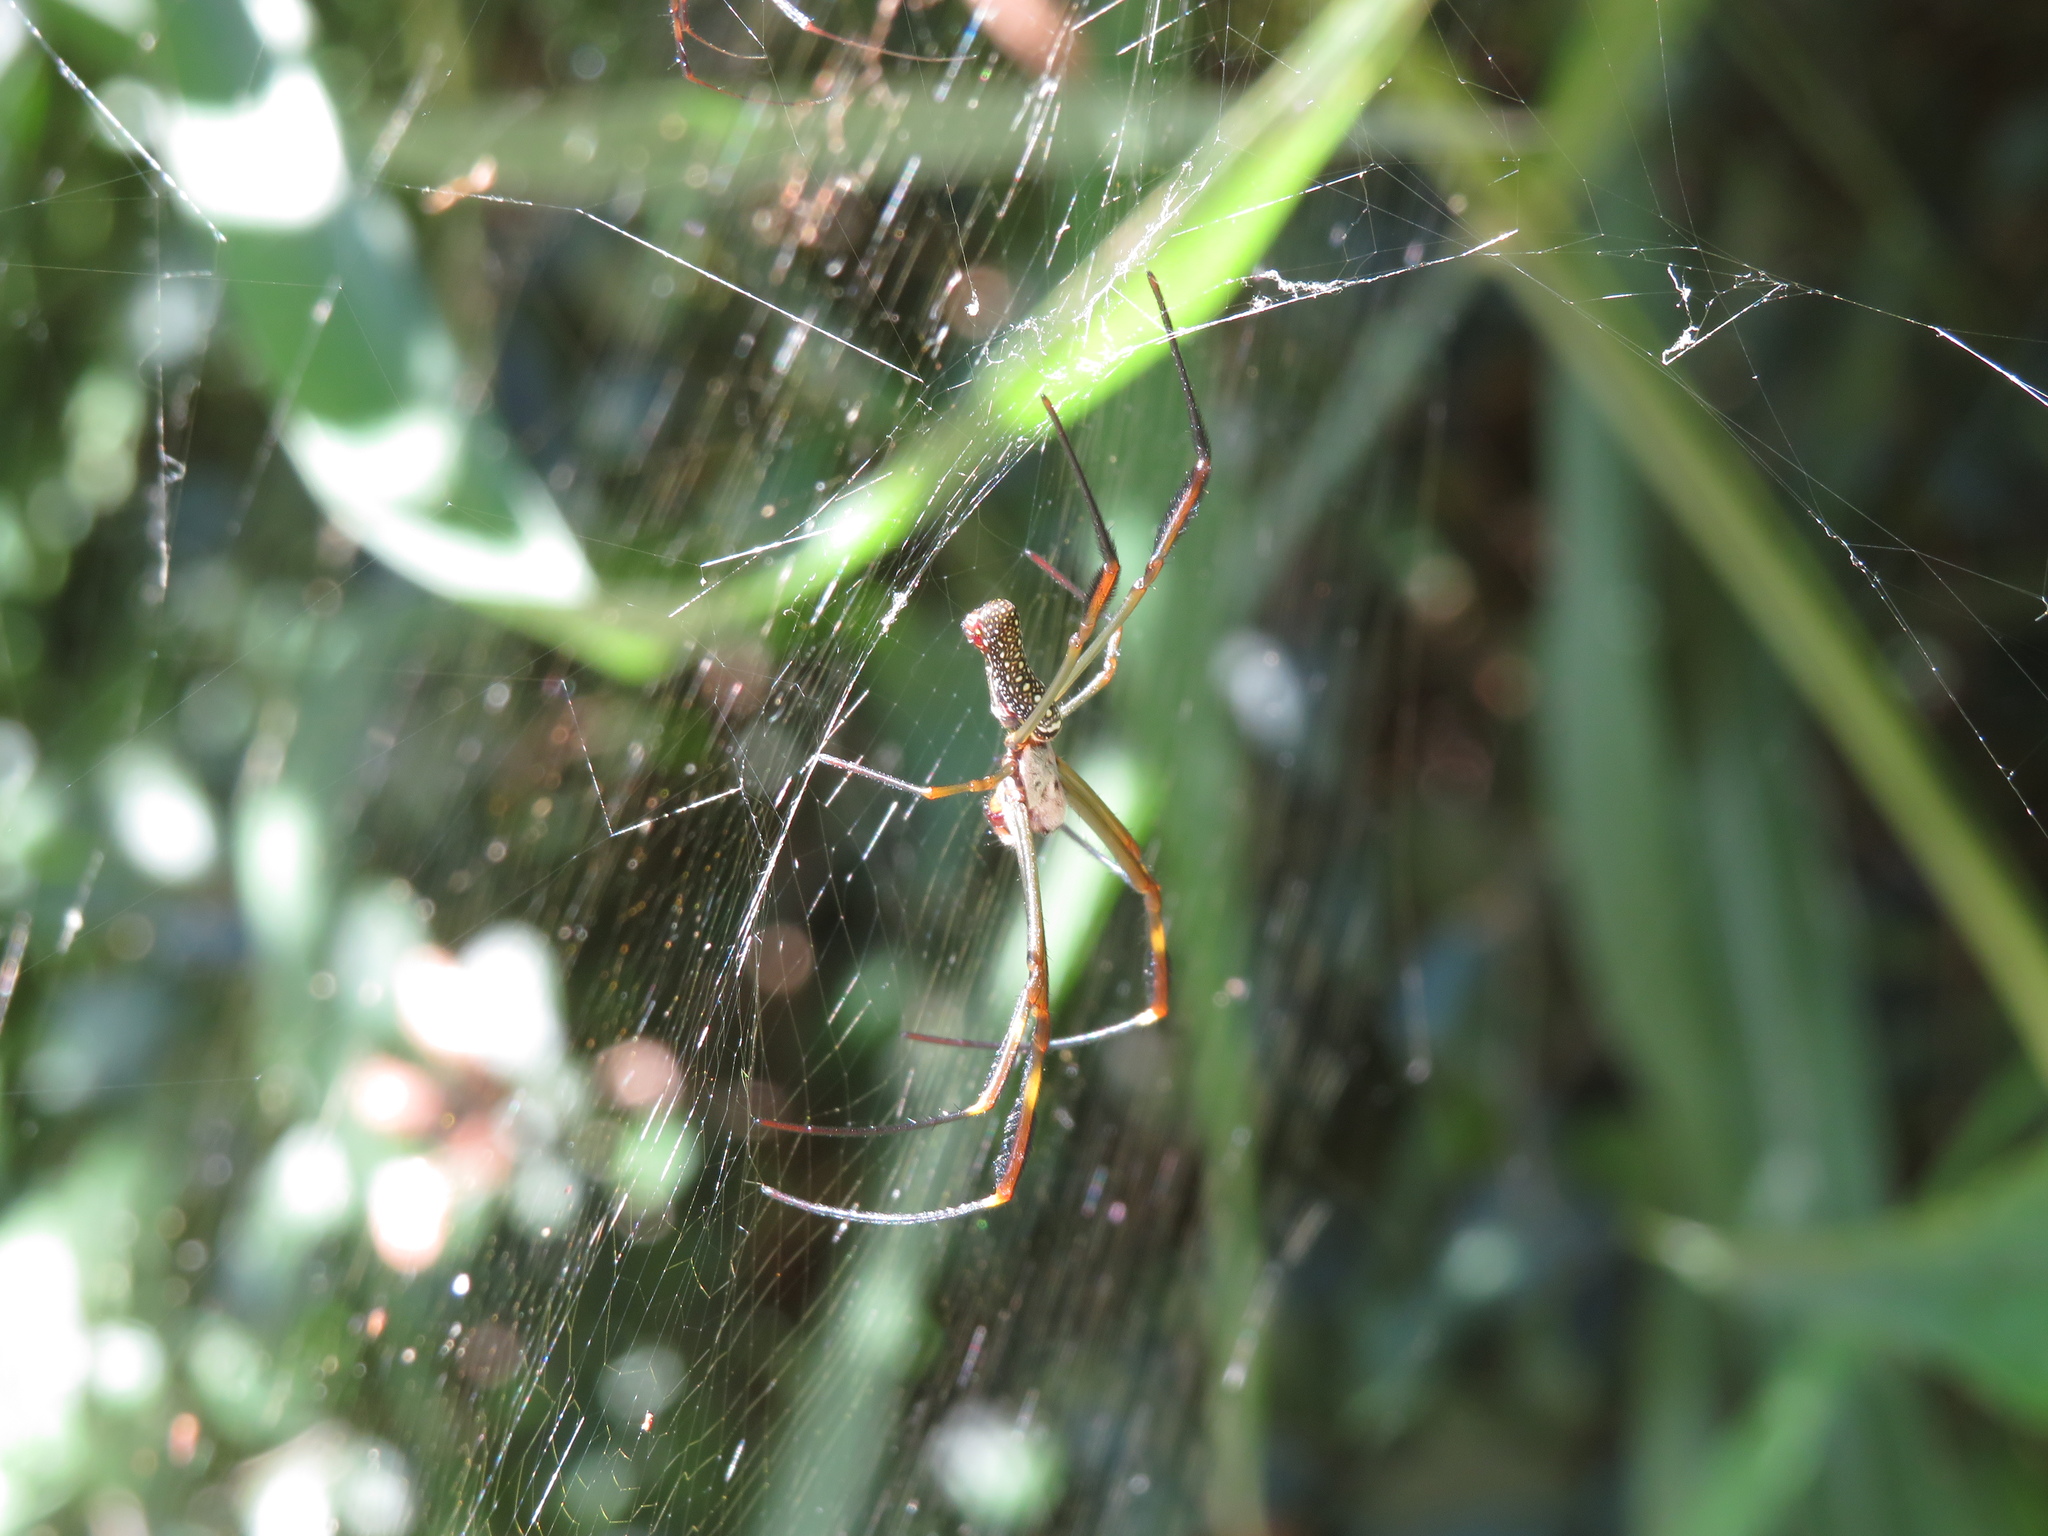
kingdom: Animalia
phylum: Arthropoda
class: Arachnida
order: Araneae
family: Araneidae
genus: Trichonephila
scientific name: Trichonephila clavipes
